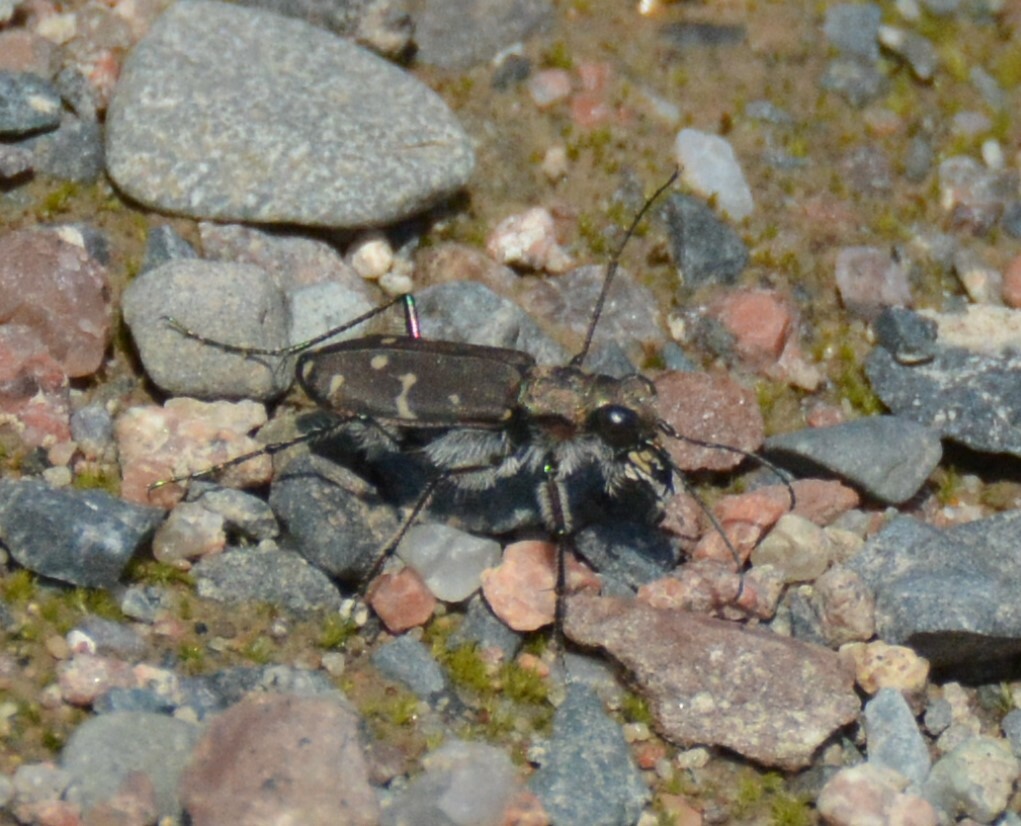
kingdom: Animalia
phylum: Arthropoda
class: Insecta
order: Coleoptera
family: Carabidae
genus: Cicindela
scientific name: Cicindela duodecimguttata
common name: Twelve-spotted tiger beetle
